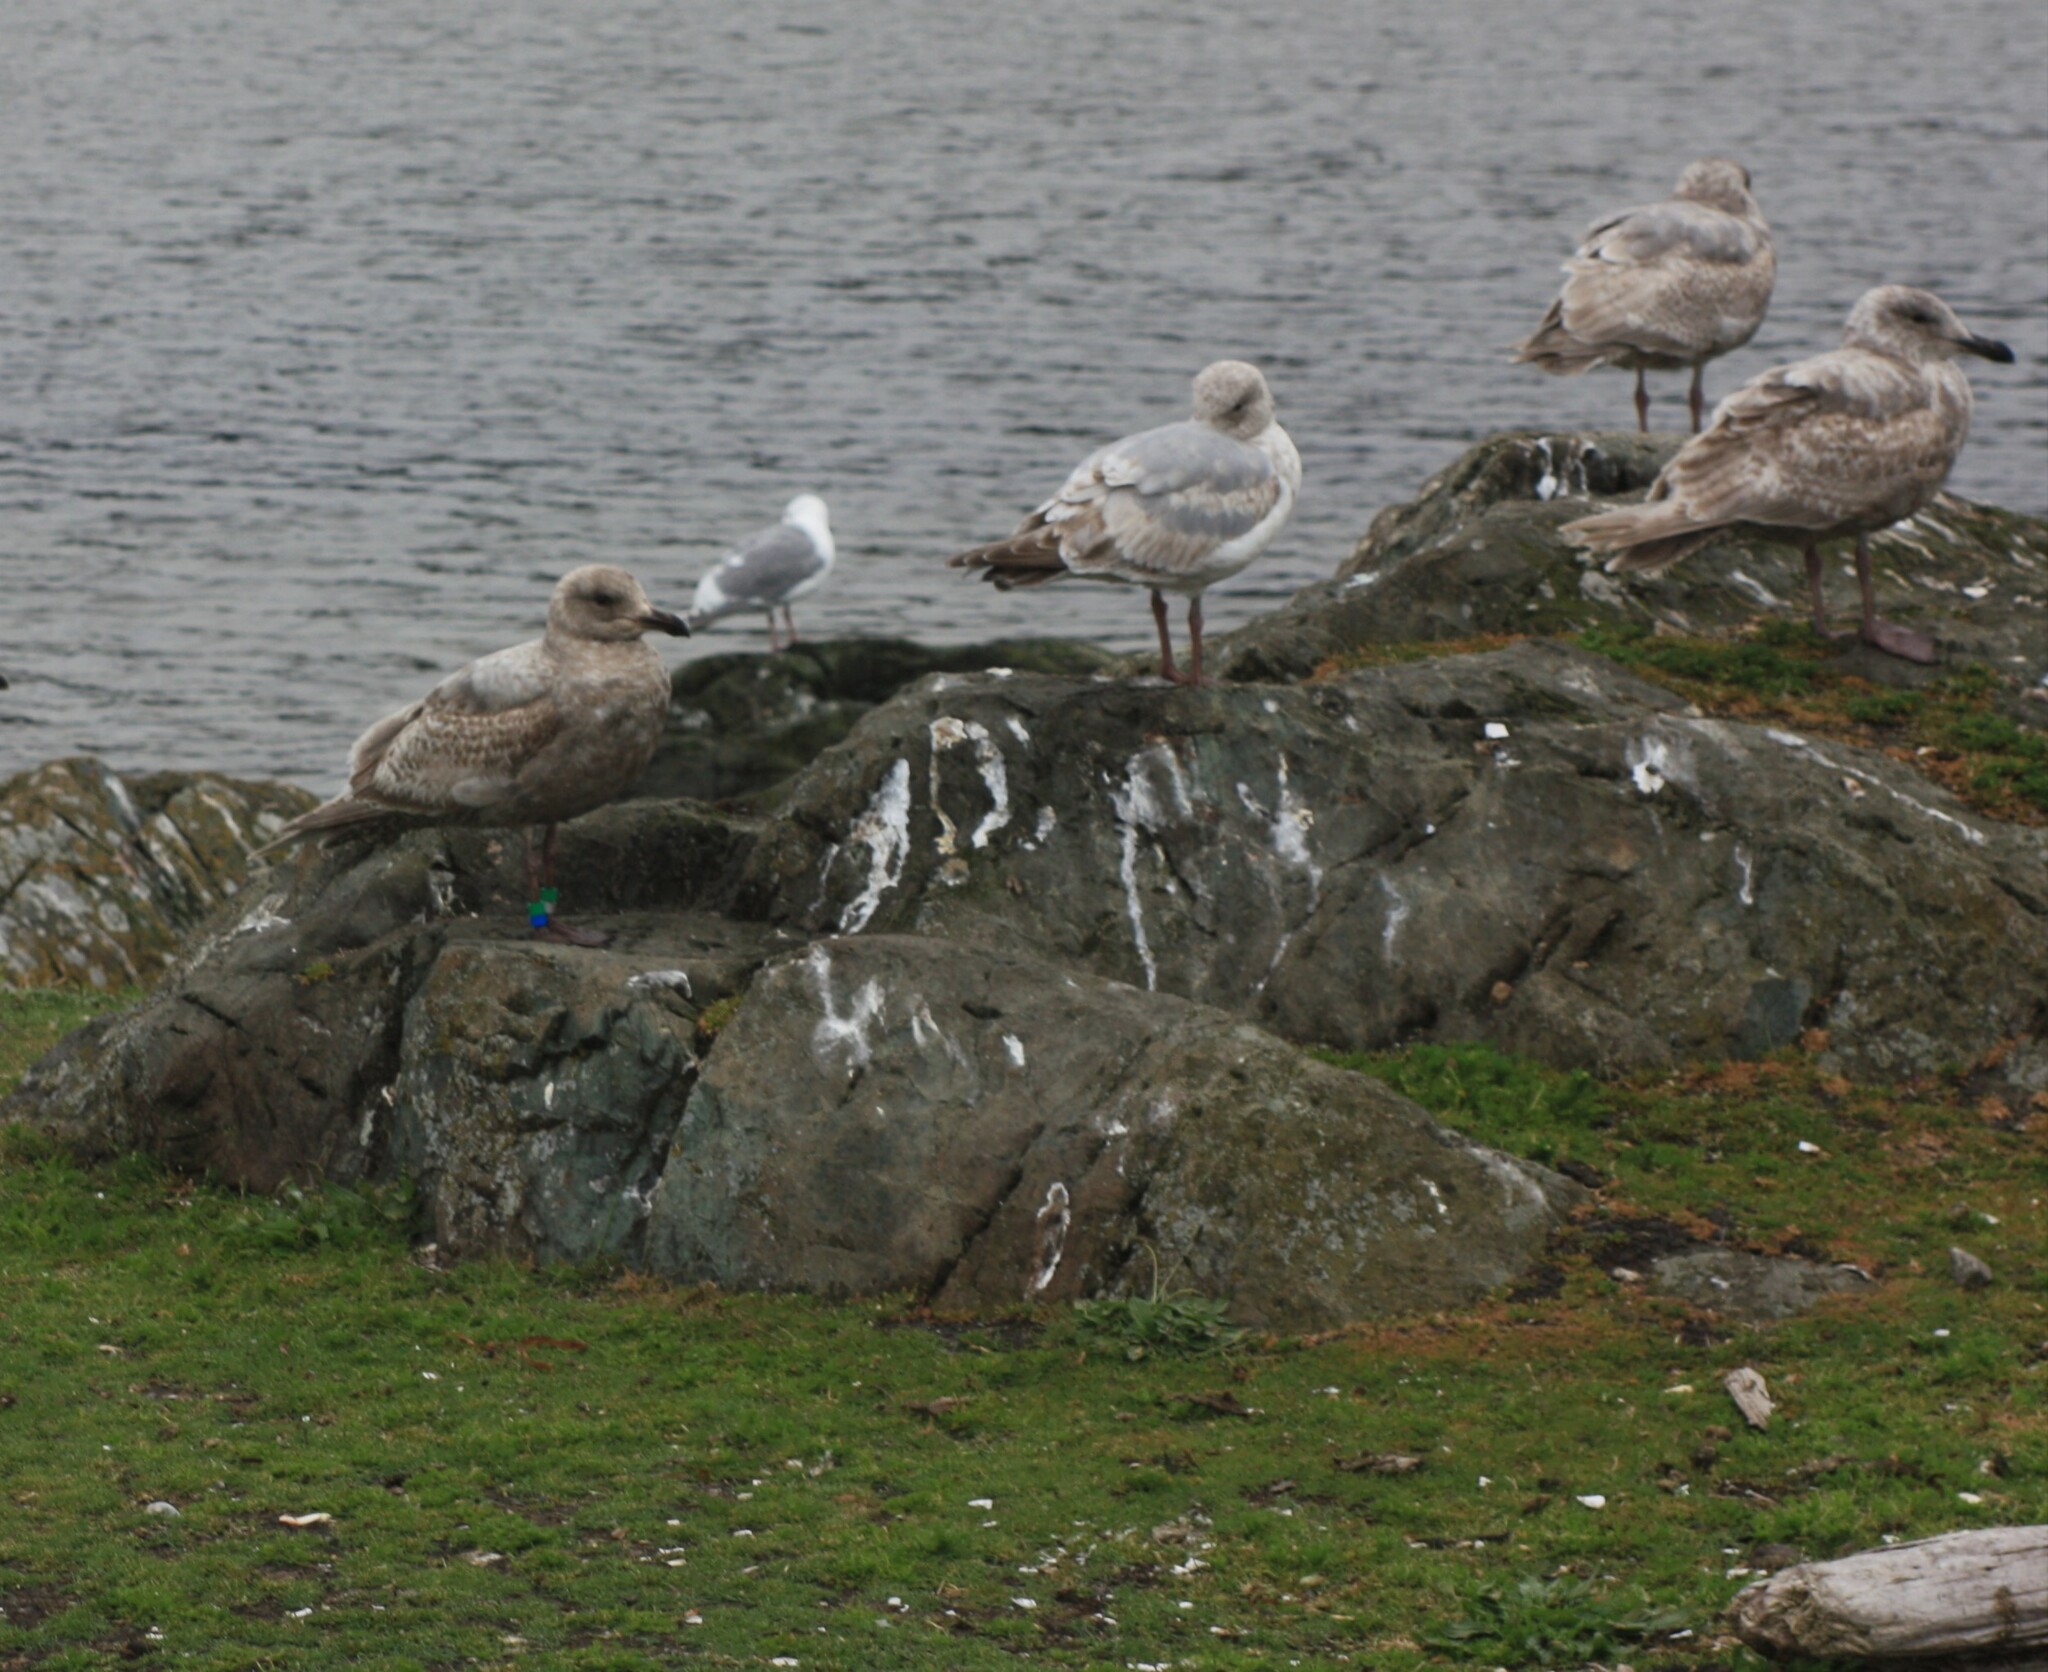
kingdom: Animalia
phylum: Chordata
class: Aves
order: Charadriiformes
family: Laridae
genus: Larus
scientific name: Larus glaucescens
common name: Glaucous-winged gull
